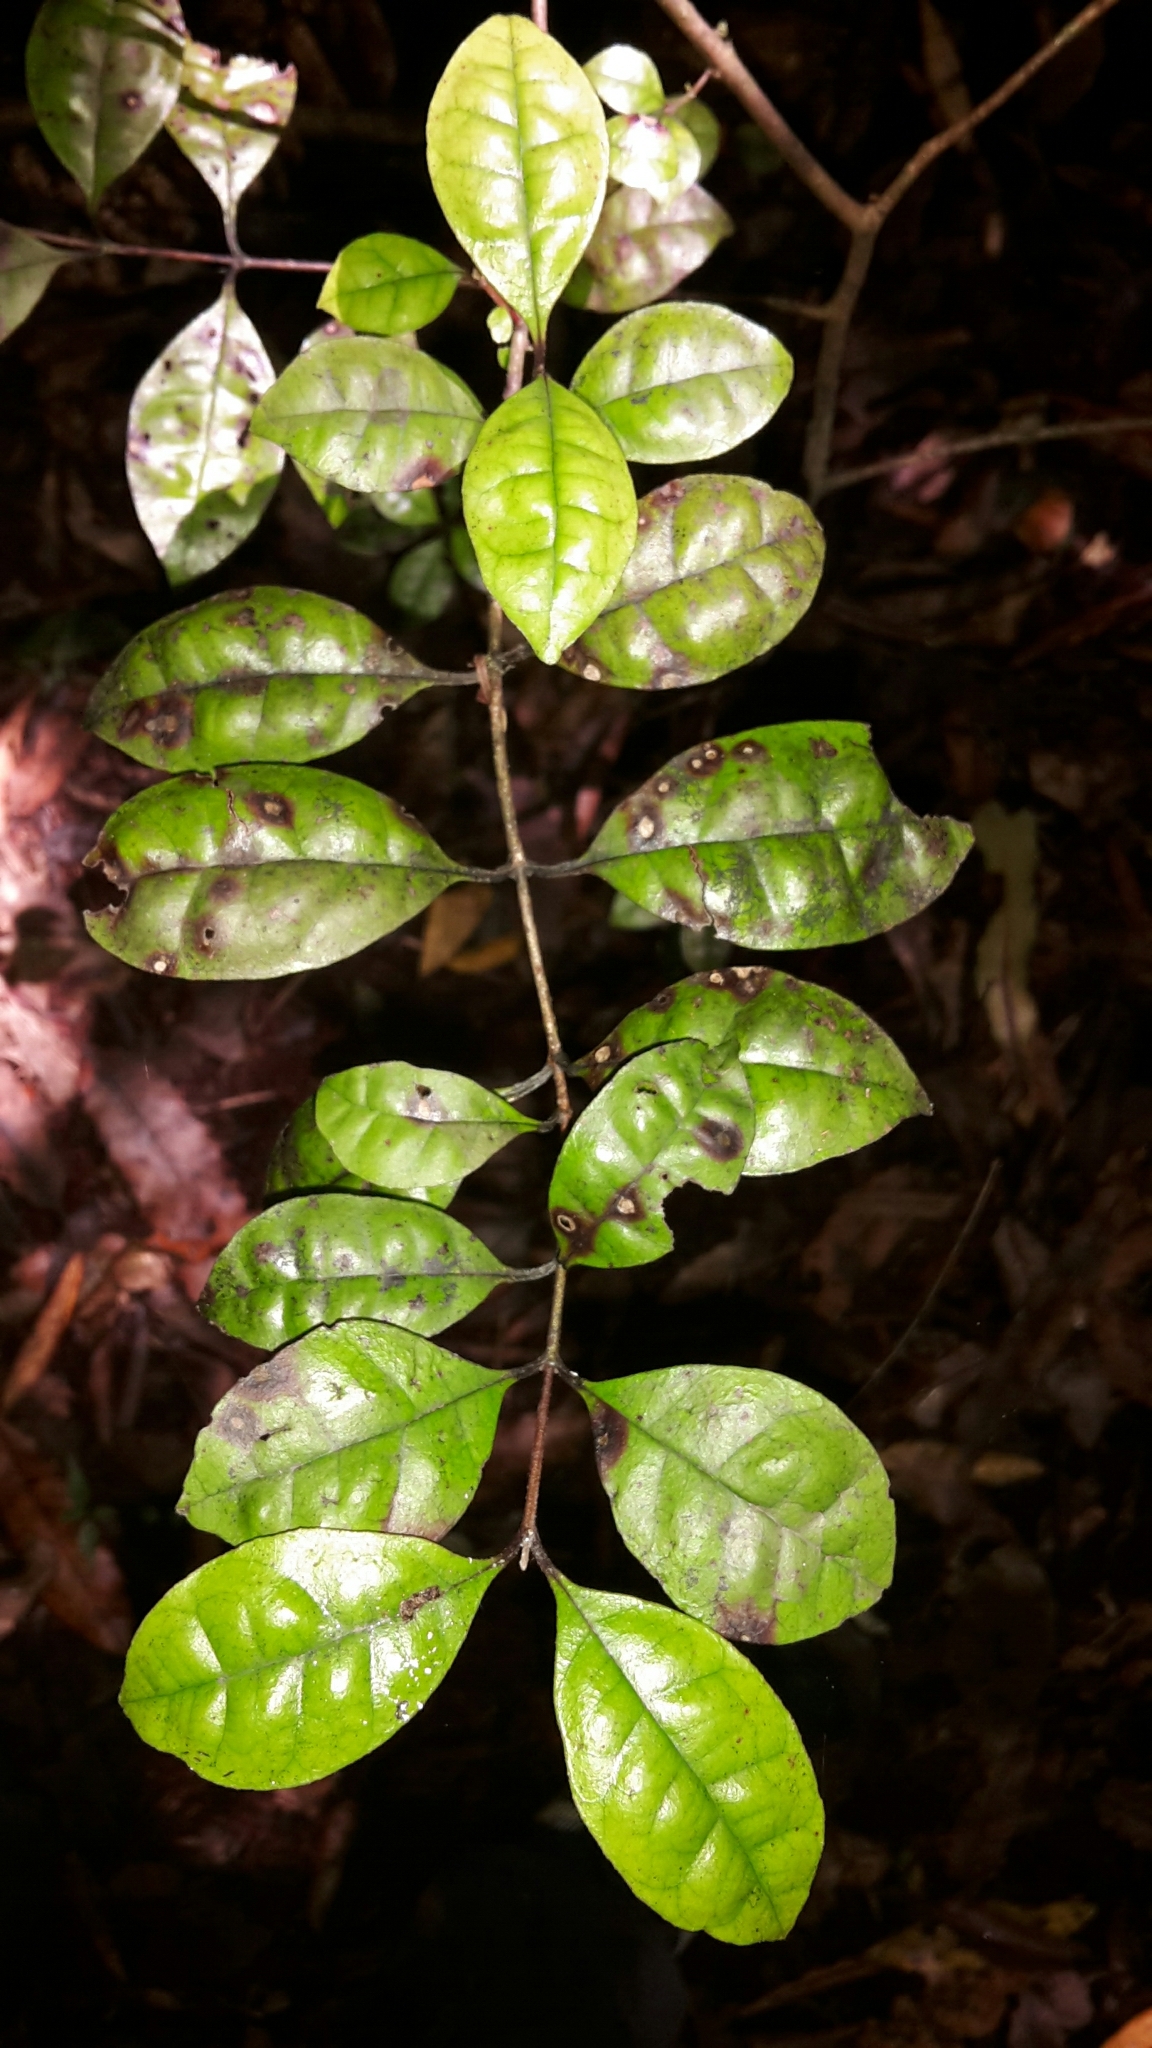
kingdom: Plantae
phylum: Tracheophyta
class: Magnoliopsida
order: Myrtales
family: Myrtaceae
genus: Lophomyrtus
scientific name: Lophomyrtus bullata
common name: Rama rama
